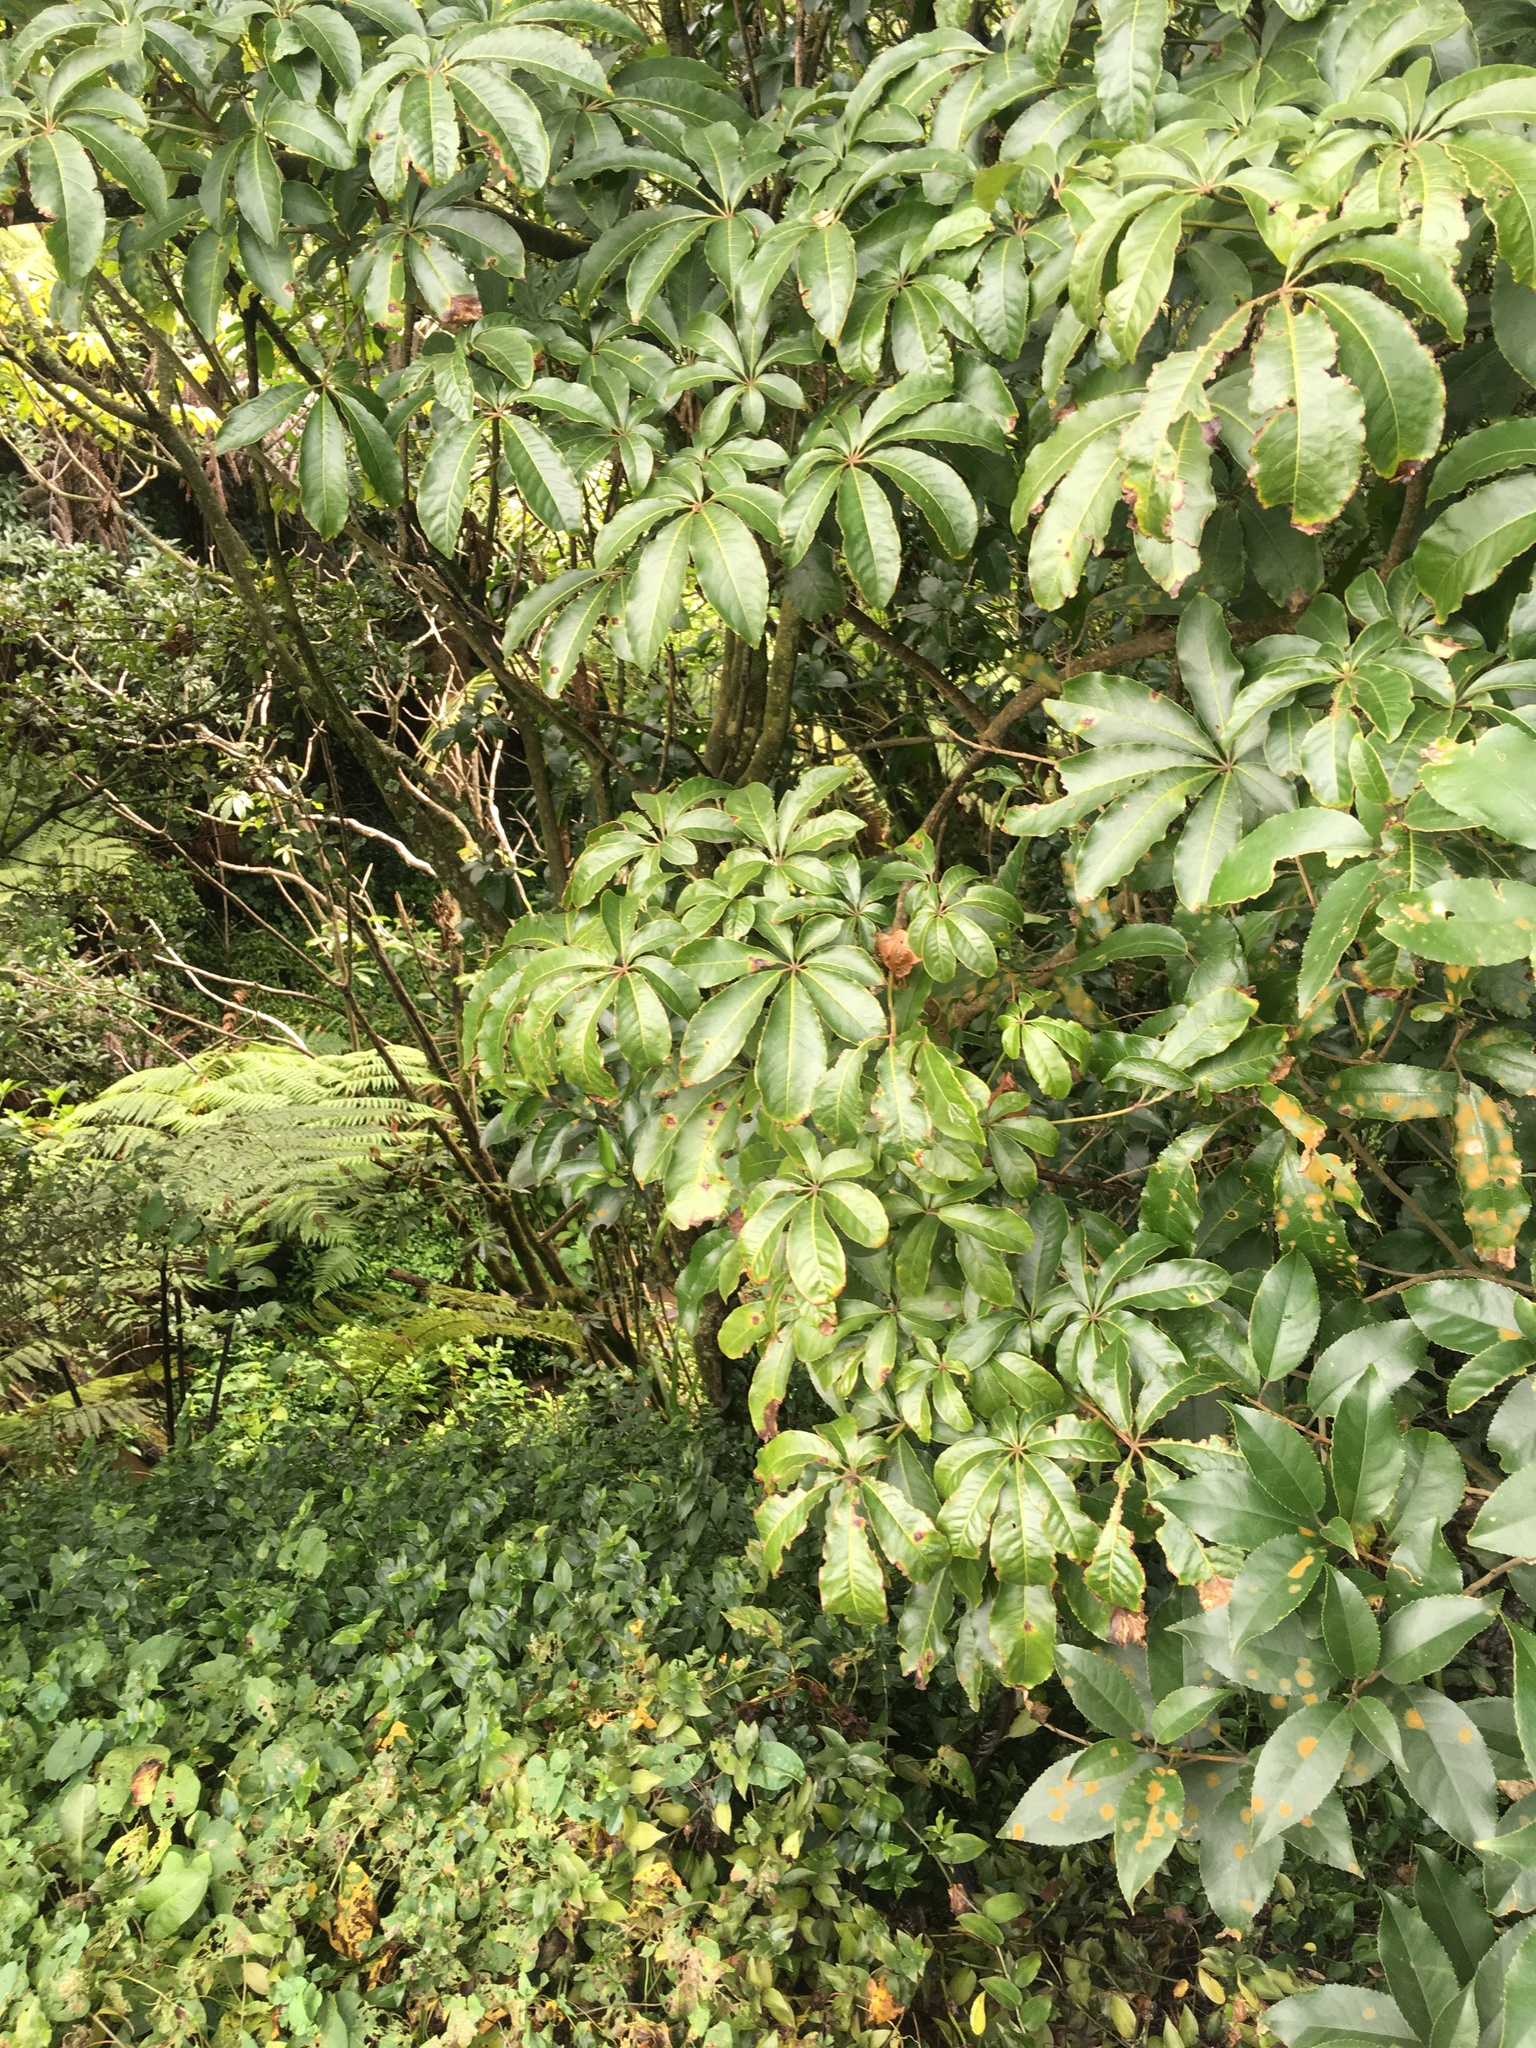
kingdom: Plantae
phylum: Tracheophyta
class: Magnoliopsida
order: Solanales
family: Convolvulaceae
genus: Calystegia
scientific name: Calystegia silvatica
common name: Large bindweed
